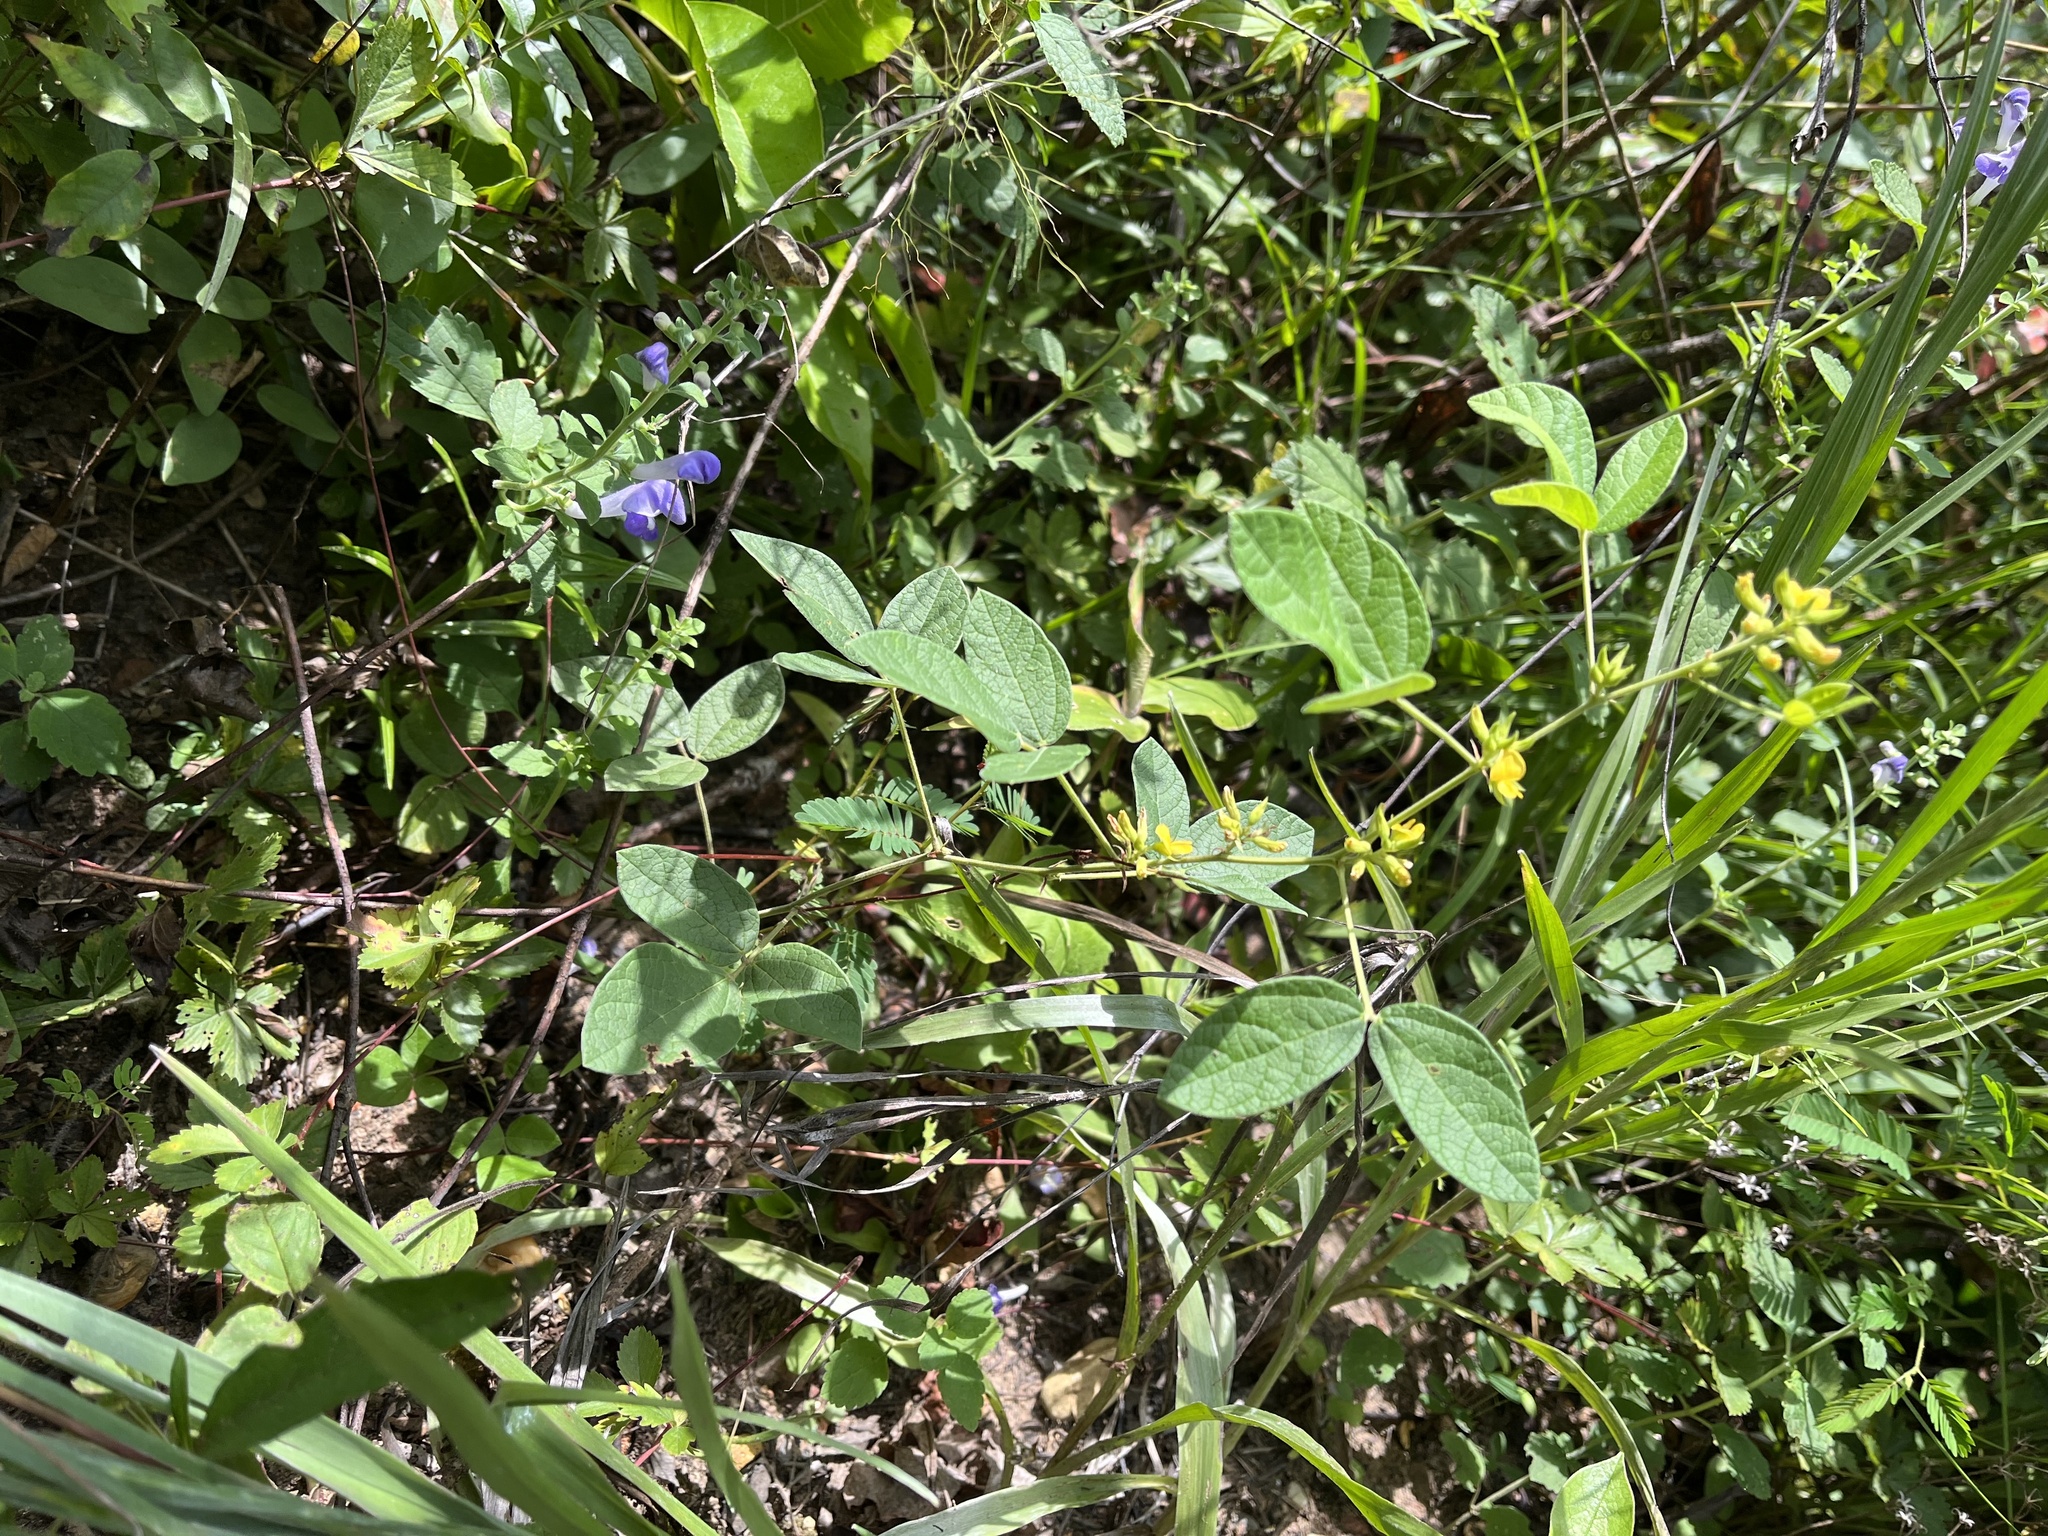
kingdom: Plantae
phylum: Tracheophyta
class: Magnoliopsida
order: Fabales
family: Fabaceae
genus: Rhynchosia
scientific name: Rhynchosia tomentosa
